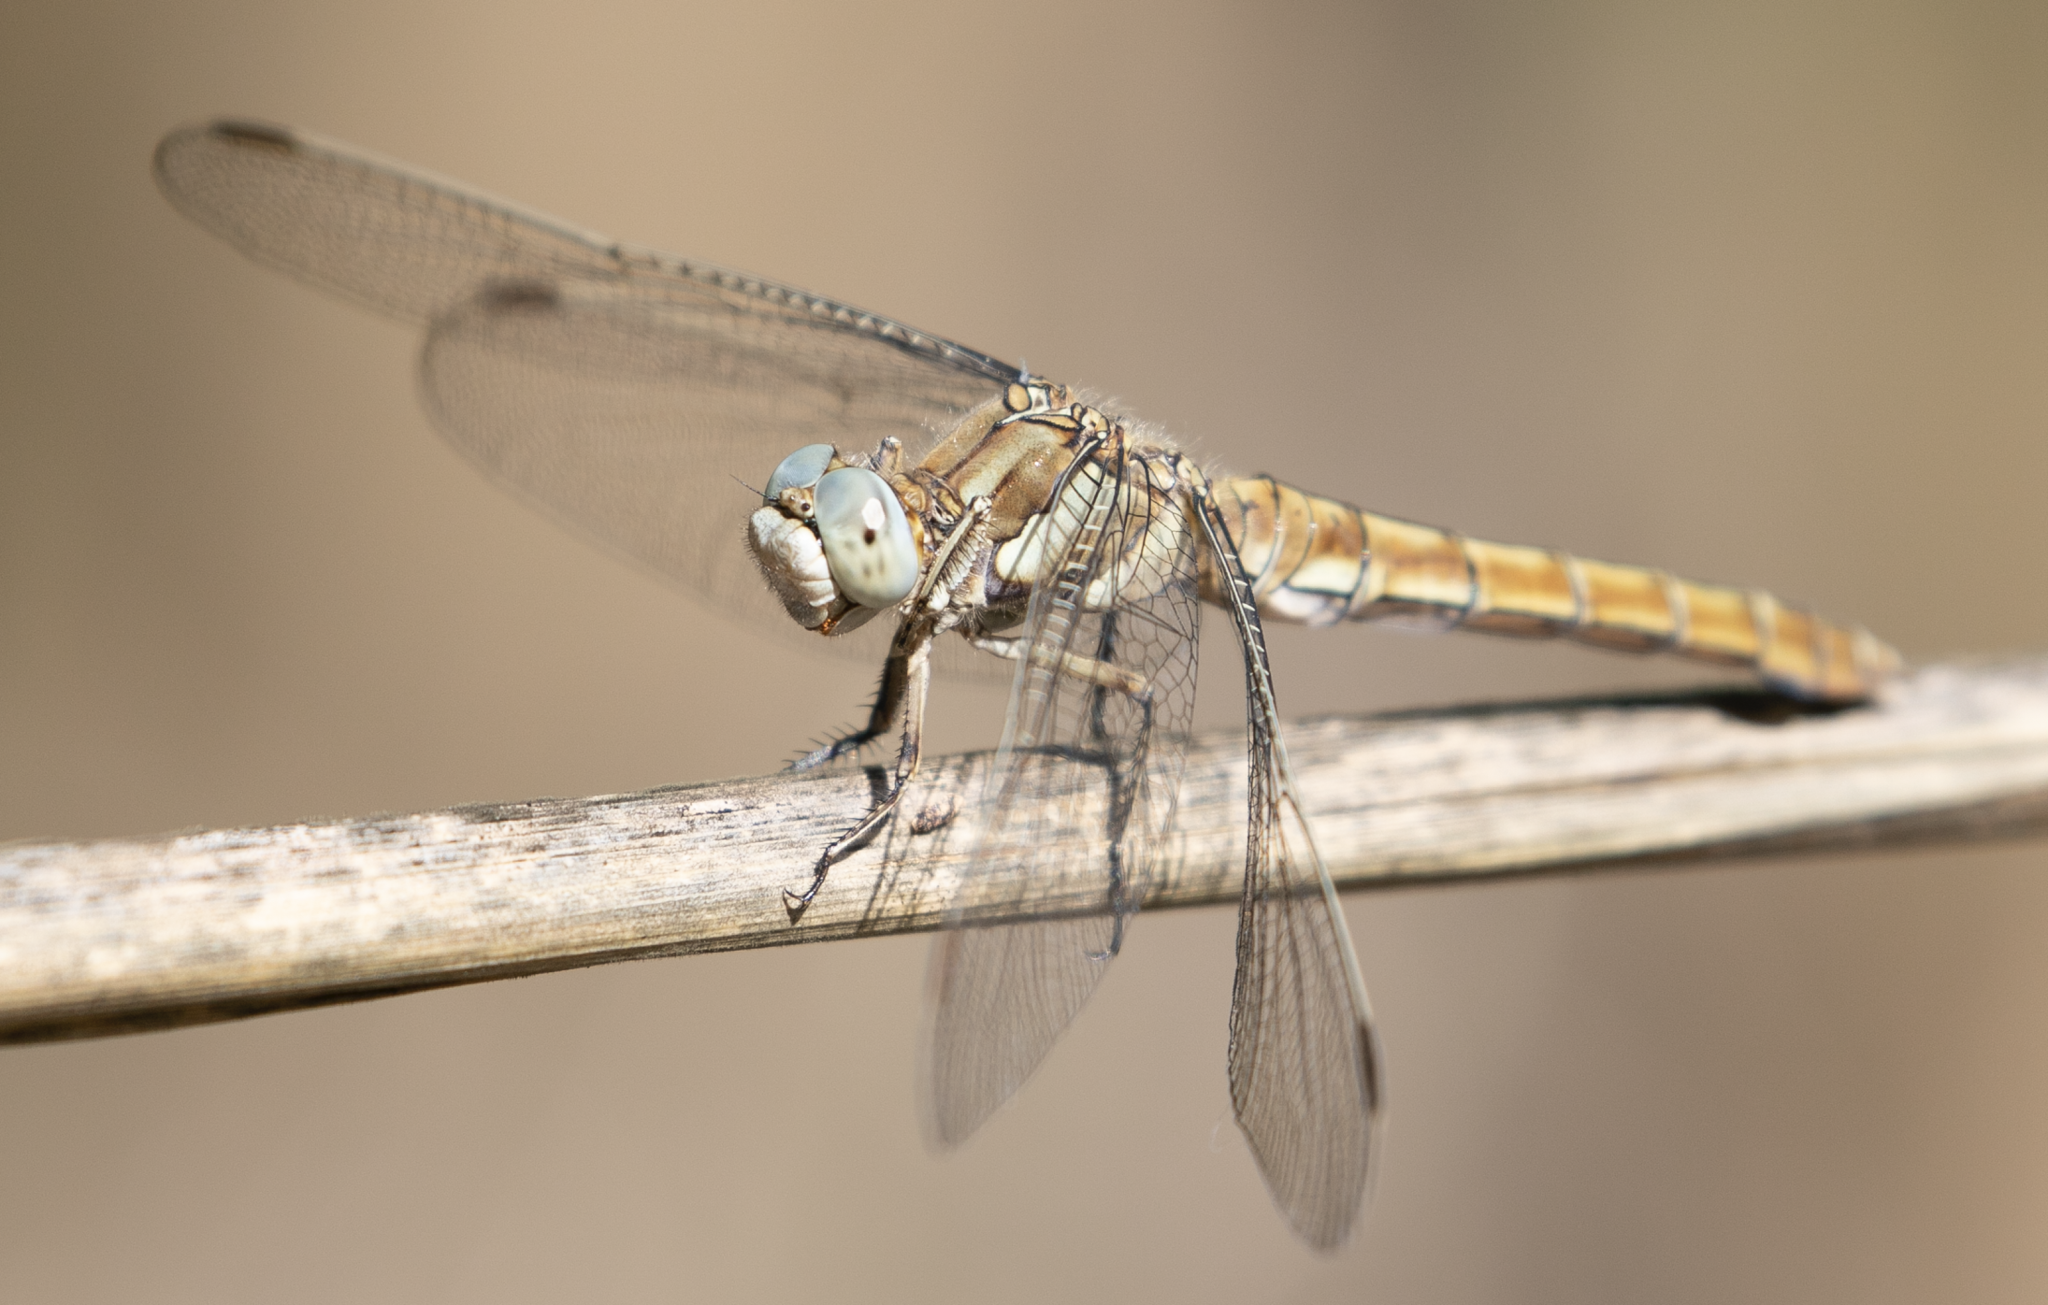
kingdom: Animalia
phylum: Arthropoda
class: Insecta
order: Odonata
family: Libellulidae
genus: Orthetrum
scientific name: Orthetrum brunneum
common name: Southern skimmer
